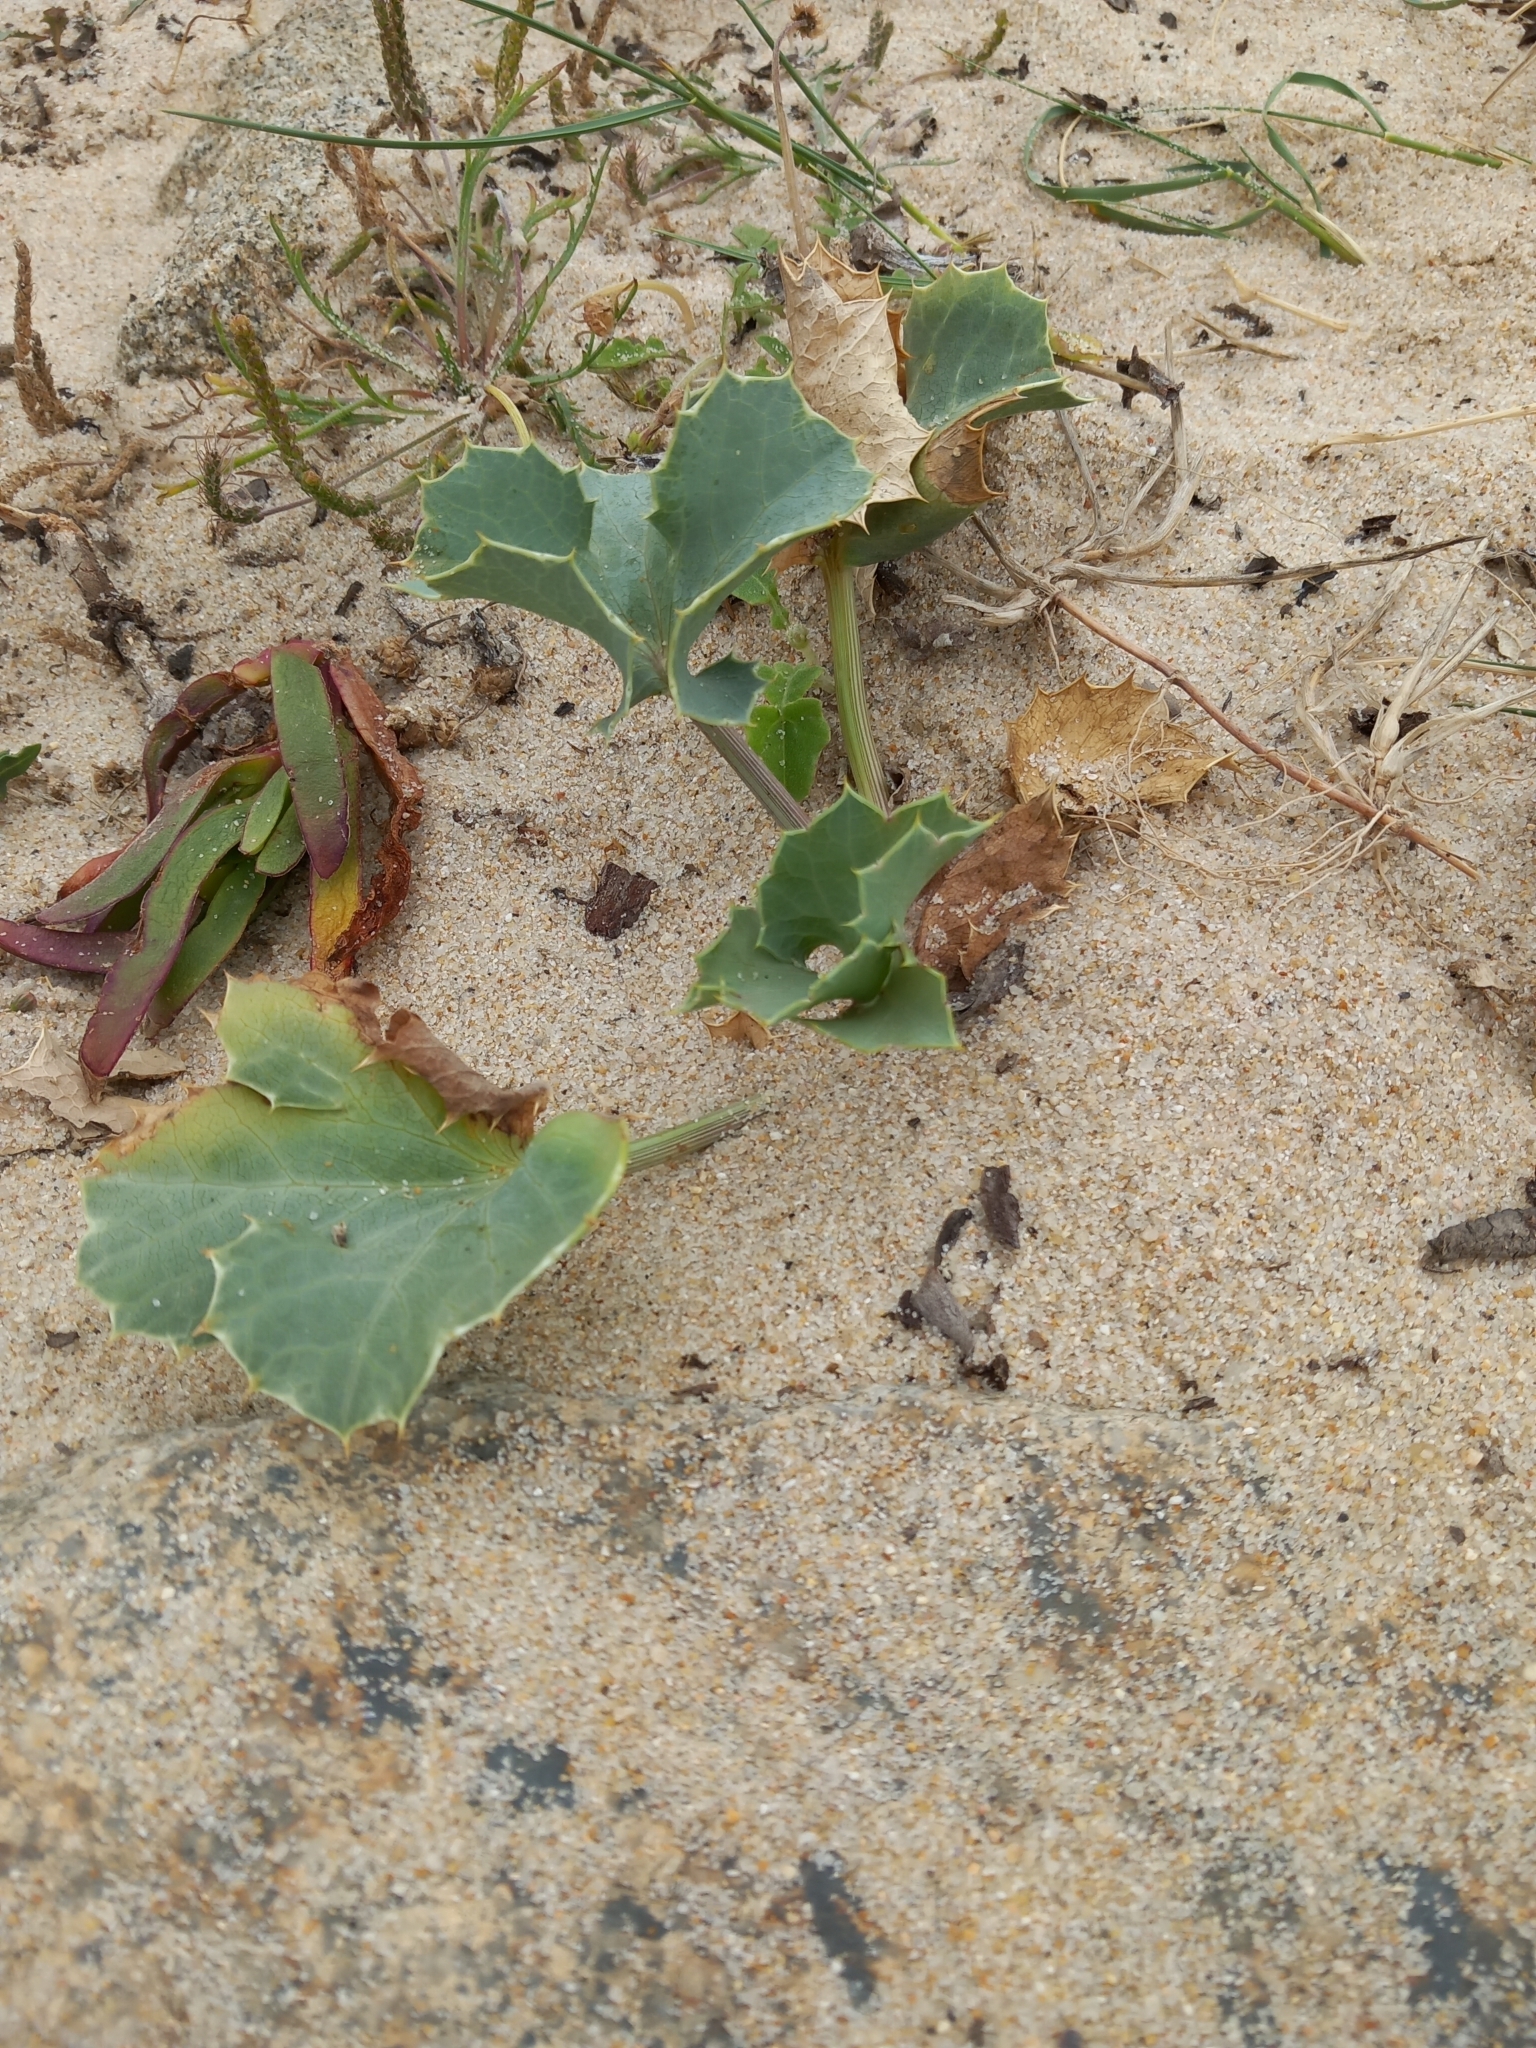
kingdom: Plantae
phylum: Tracheophyta
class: Magnoliopsida
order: Apiales
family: Apiaceae
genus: Eryngium
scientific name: Eryngium maritimum
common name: Sea-holly
